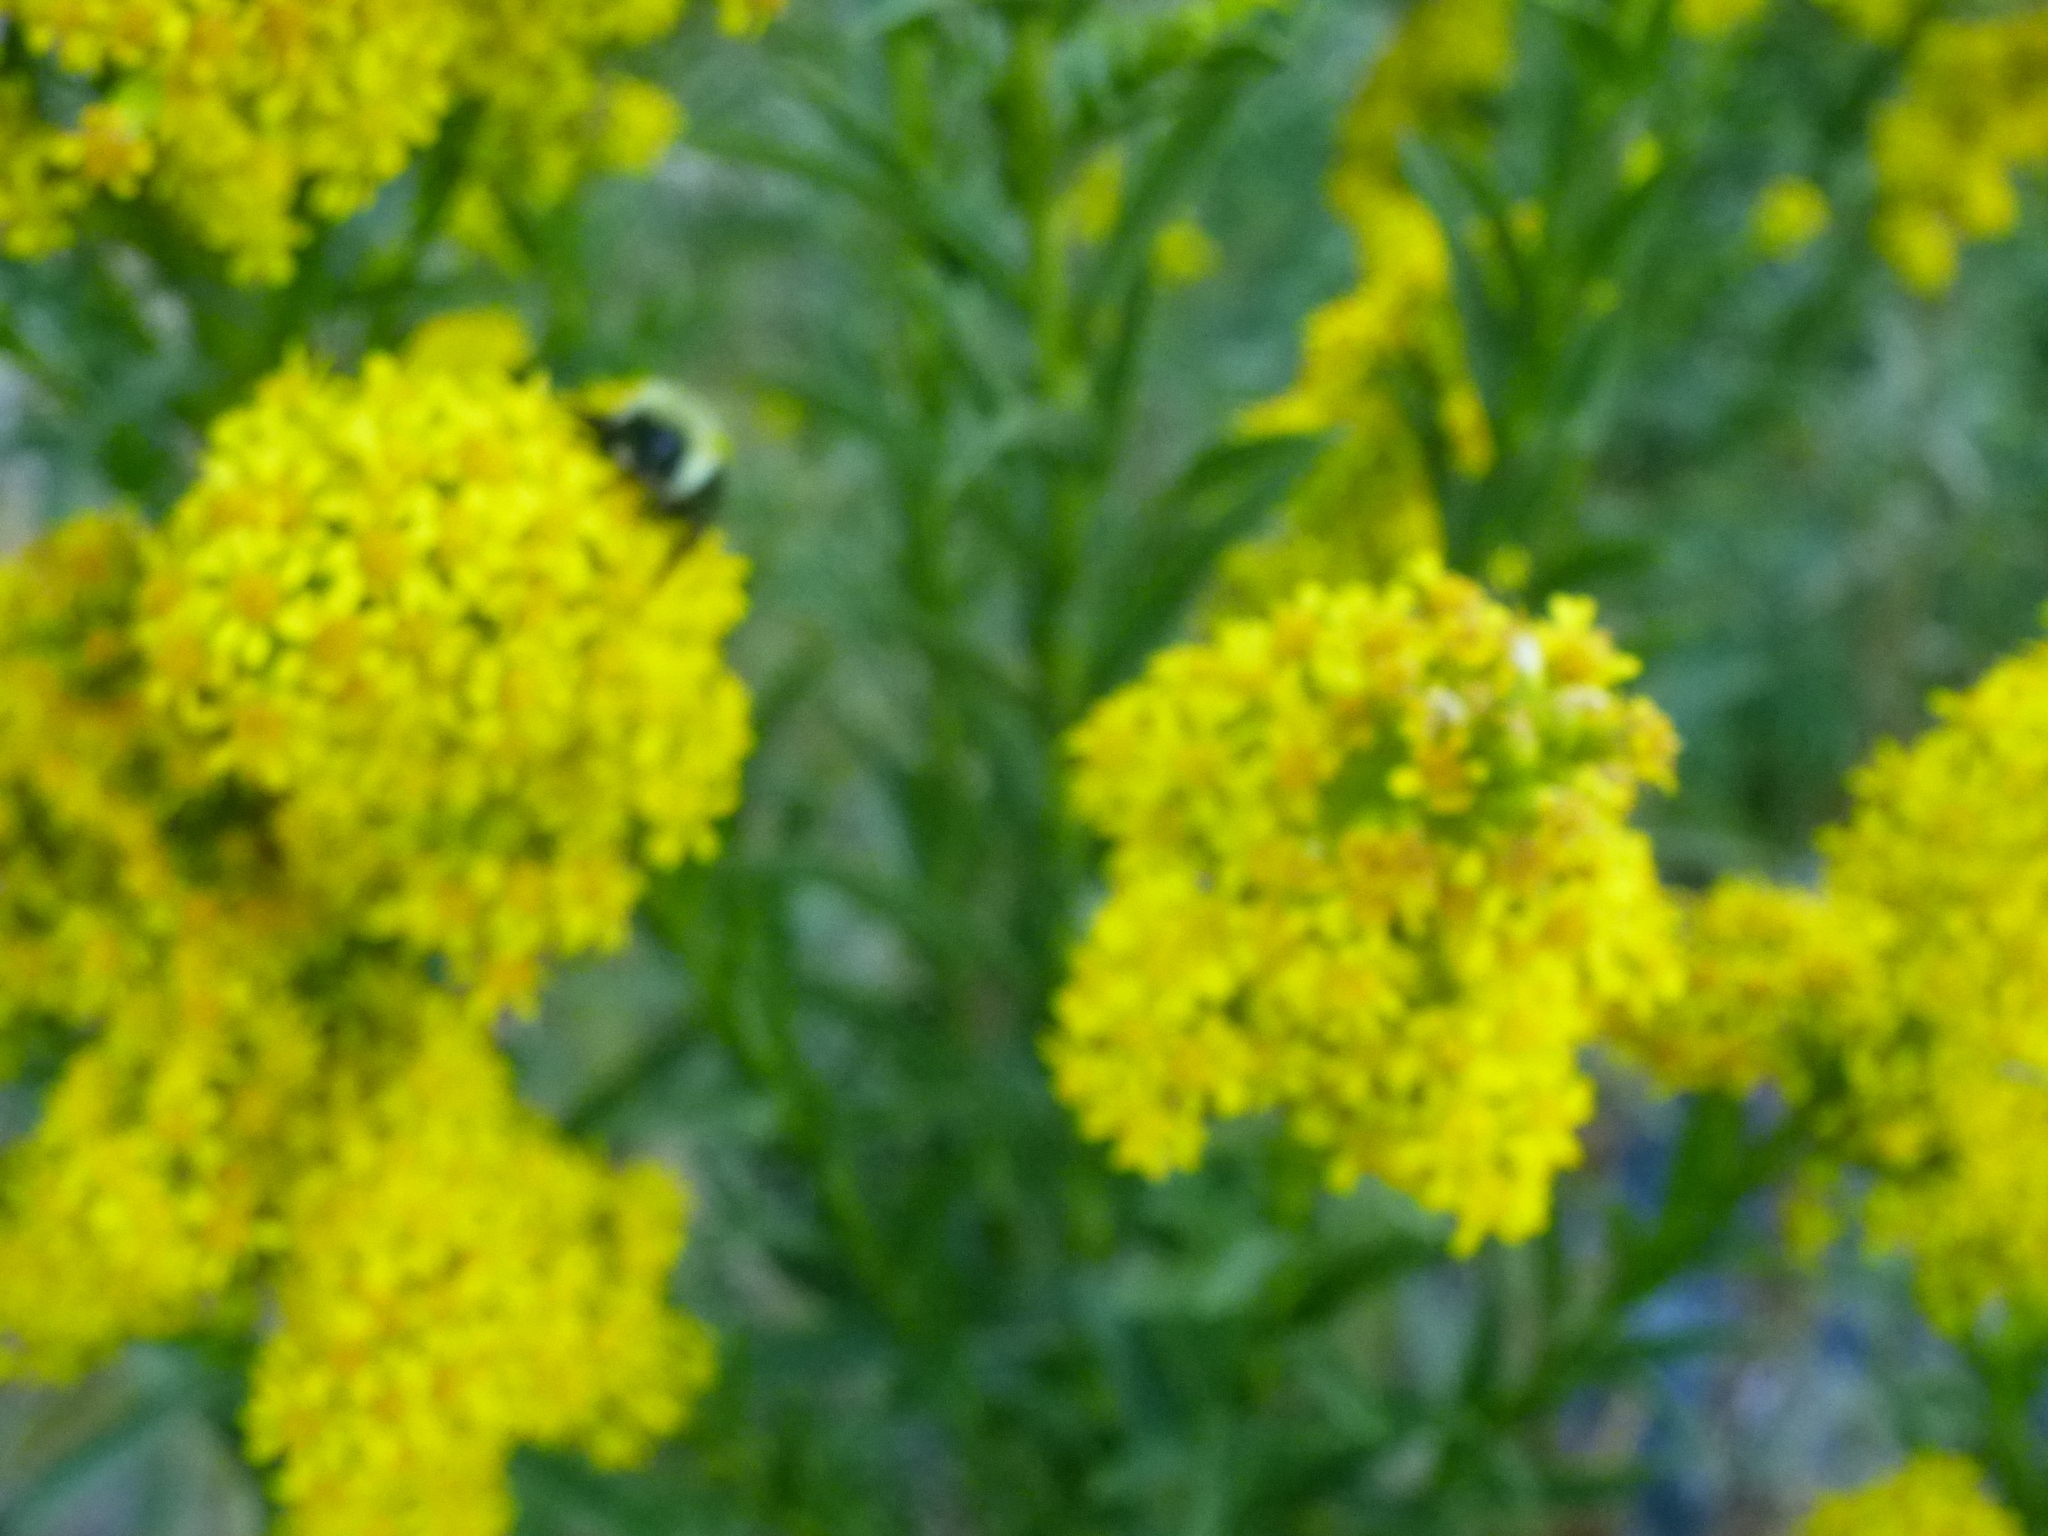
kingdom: Plantae
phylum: Tracheophyta
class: Magnoliopsida
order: Asterales
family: Asteraceae
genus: Solidago
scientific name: Solidago sempervirens
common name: Salt-marsh goldenrod
